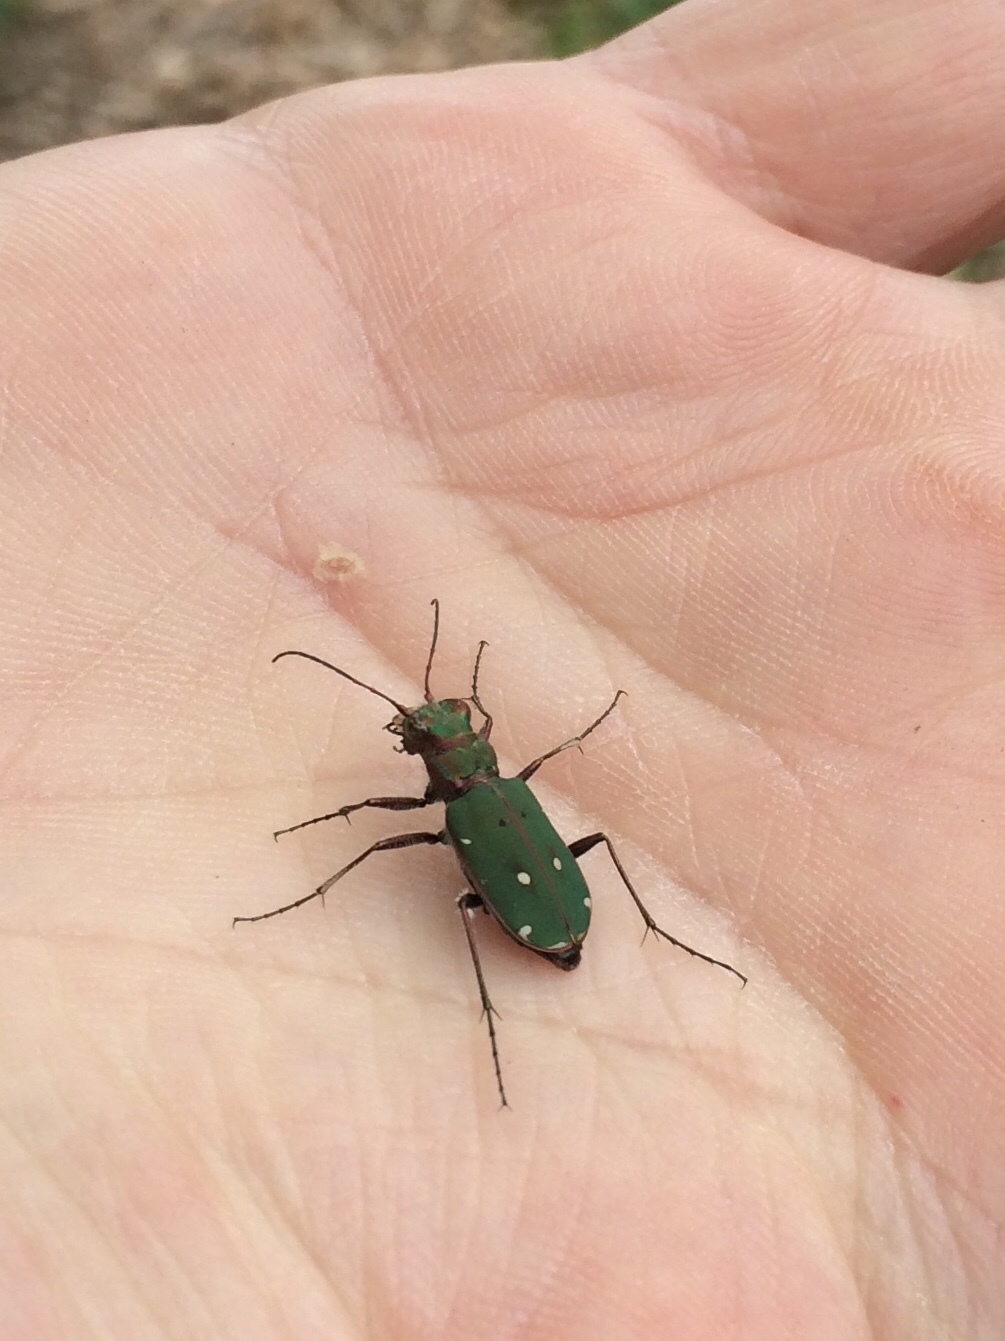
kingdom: Animalia
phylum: Arthropoda
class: Insecta
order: Coleoptera
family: Carabidae
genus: Cicindela
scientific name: Cicindela campestris
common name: Common tiger beetle
